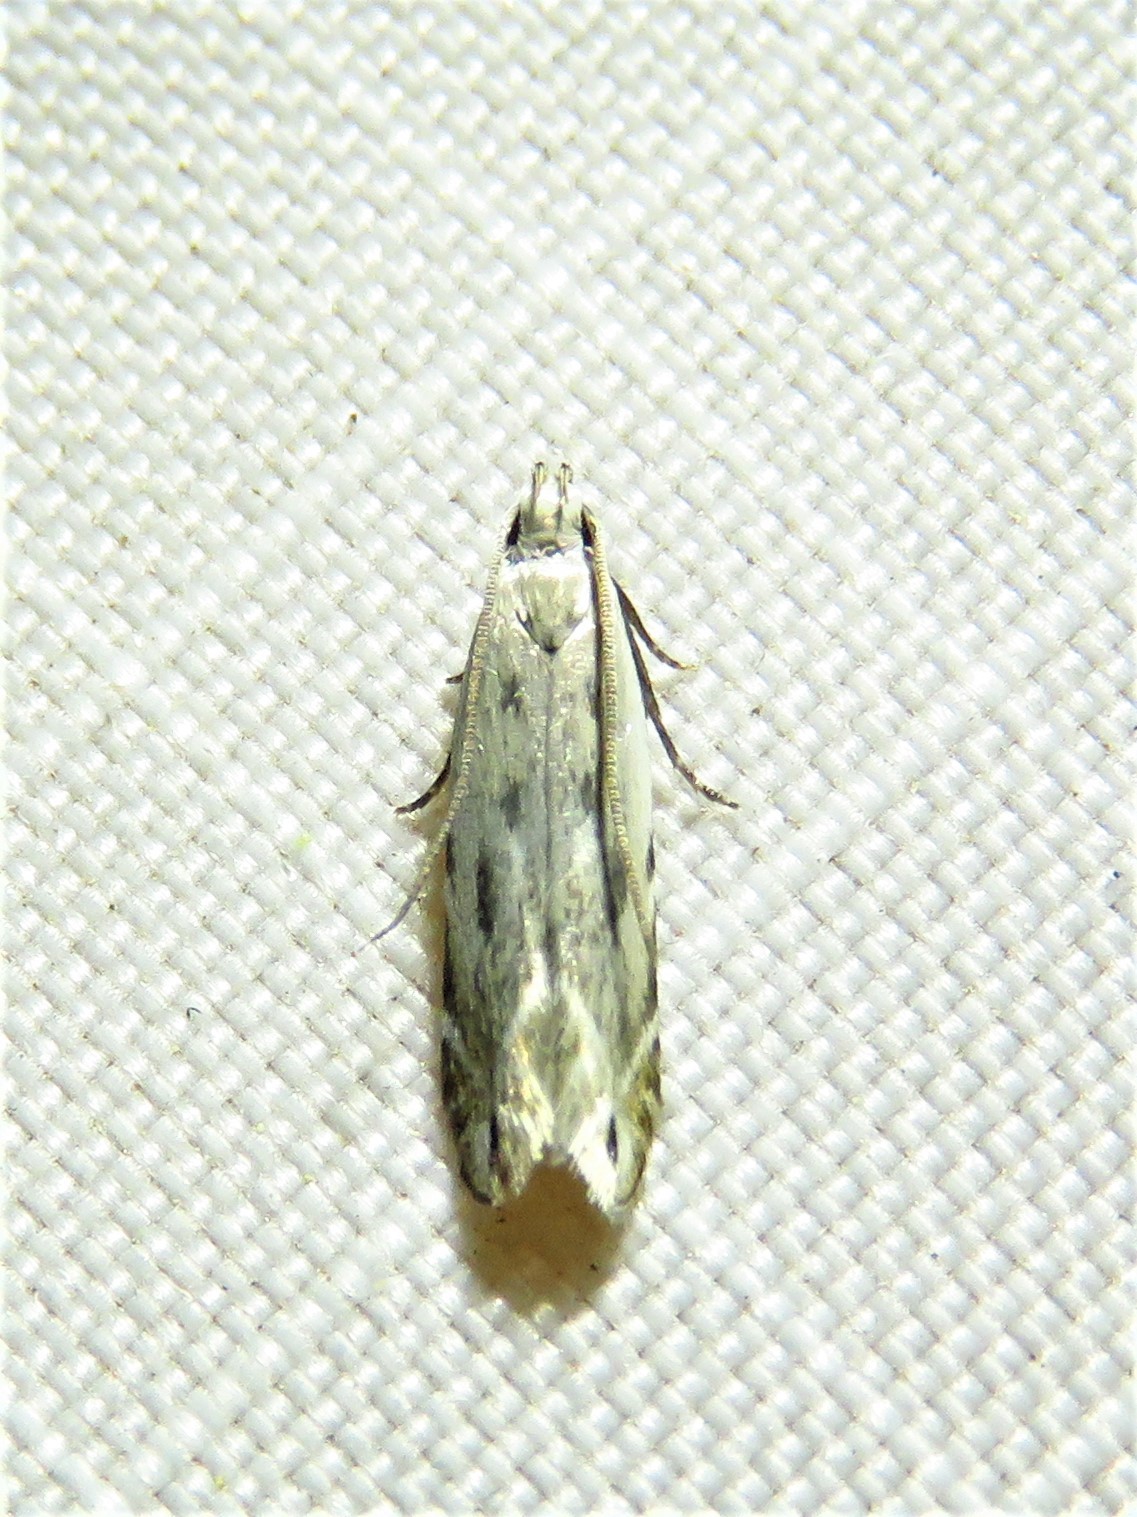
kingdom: Animalia
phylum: Arthropoda
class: Insecta
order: Lepidoptera
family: Gelechiidae
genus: Battaristis
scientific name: Battaristis nigratomella
